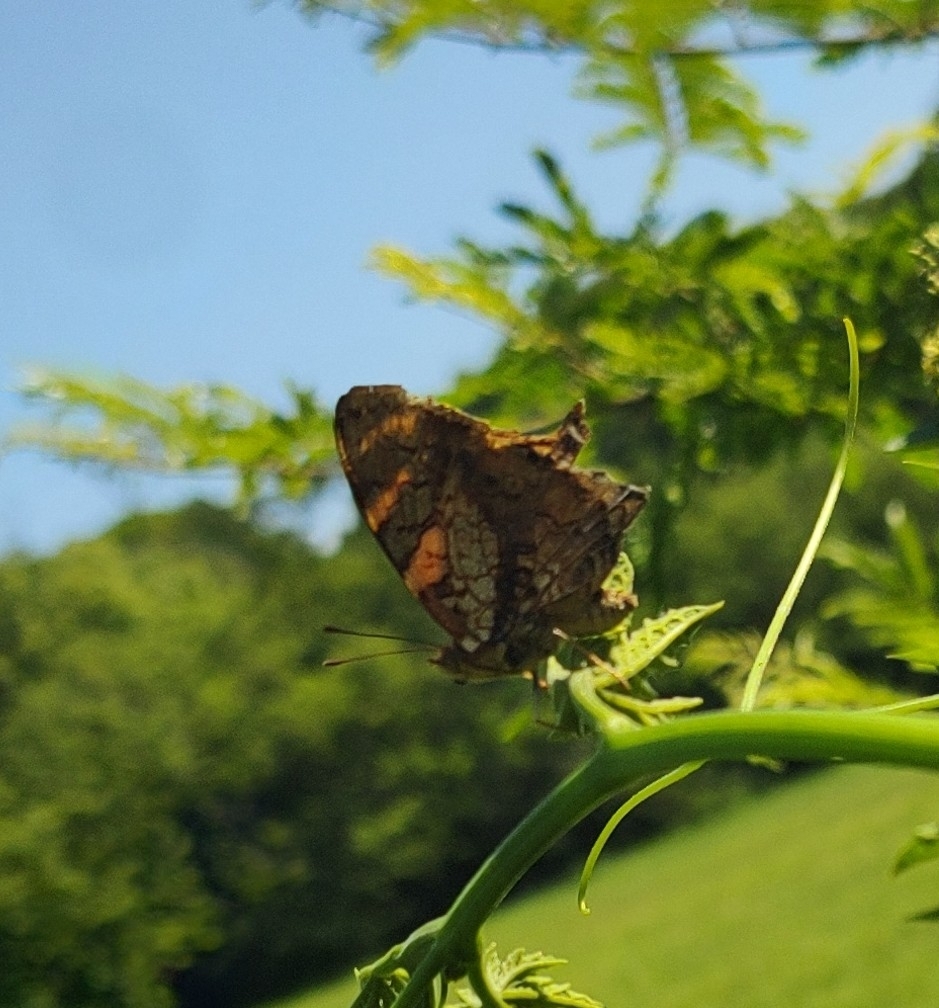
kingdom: Animalia
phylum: Arthropoda
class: Insecta
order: Lepidoptera
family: Nymphalidae
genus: Hypanartia
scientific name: Hypanartia lethe
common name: Orange mapwing
